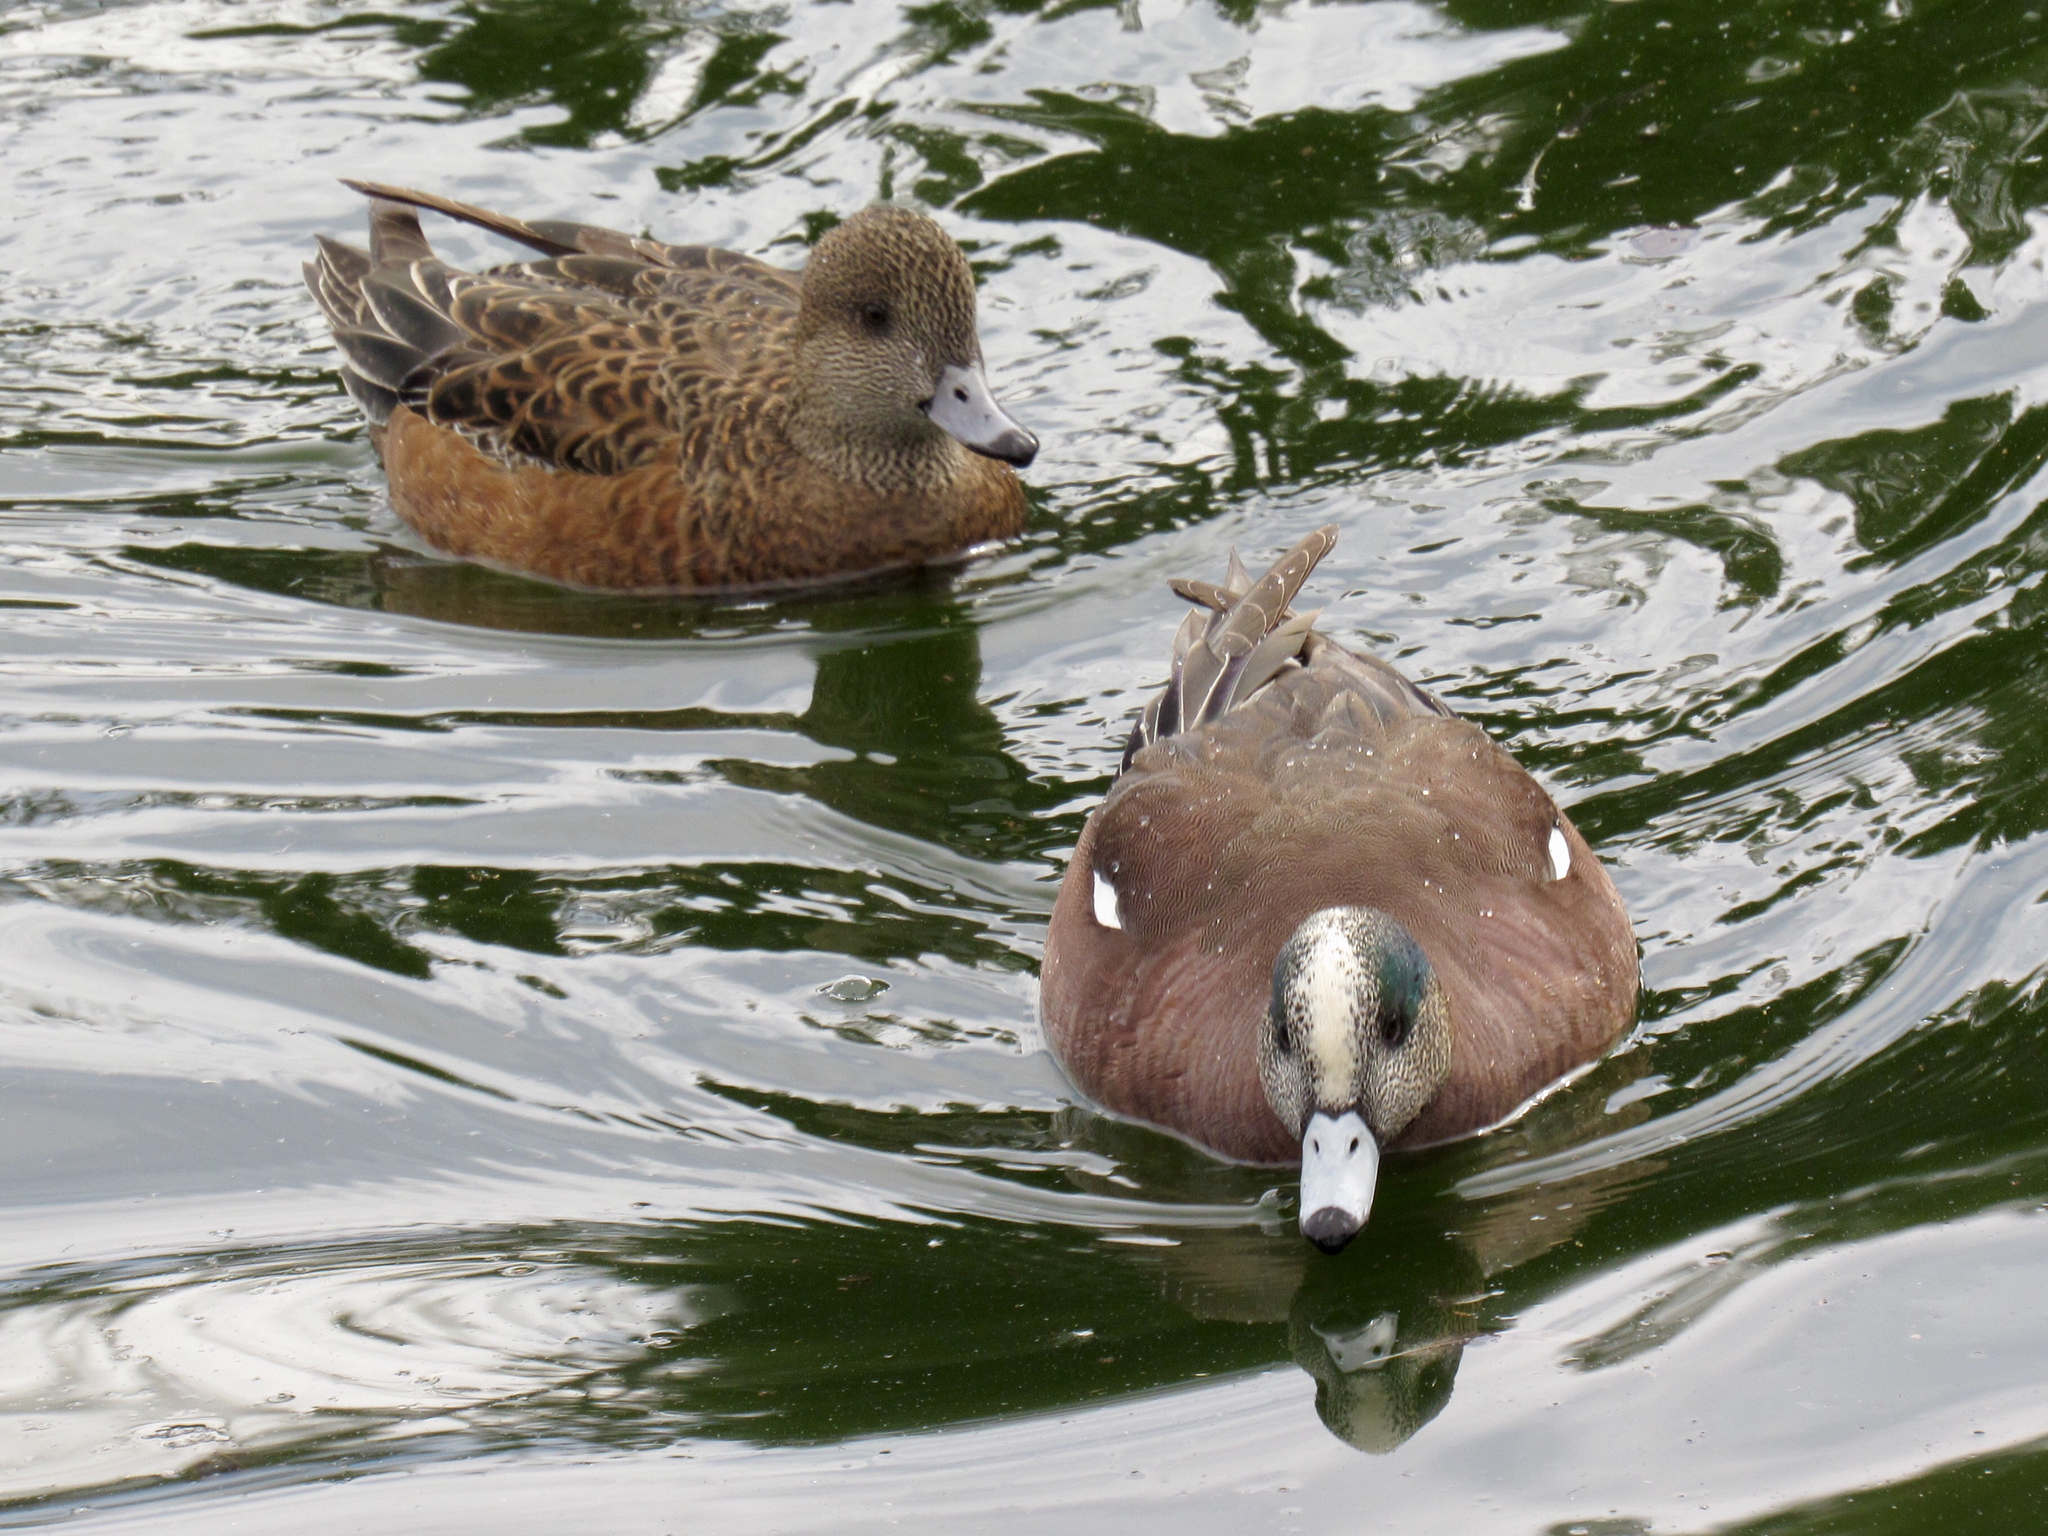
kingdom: Animalia
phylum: Chordata
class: Aves
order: Anseriformes
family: Anatidae
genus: Mareca
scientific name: Mareca americana
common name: American wigeon
